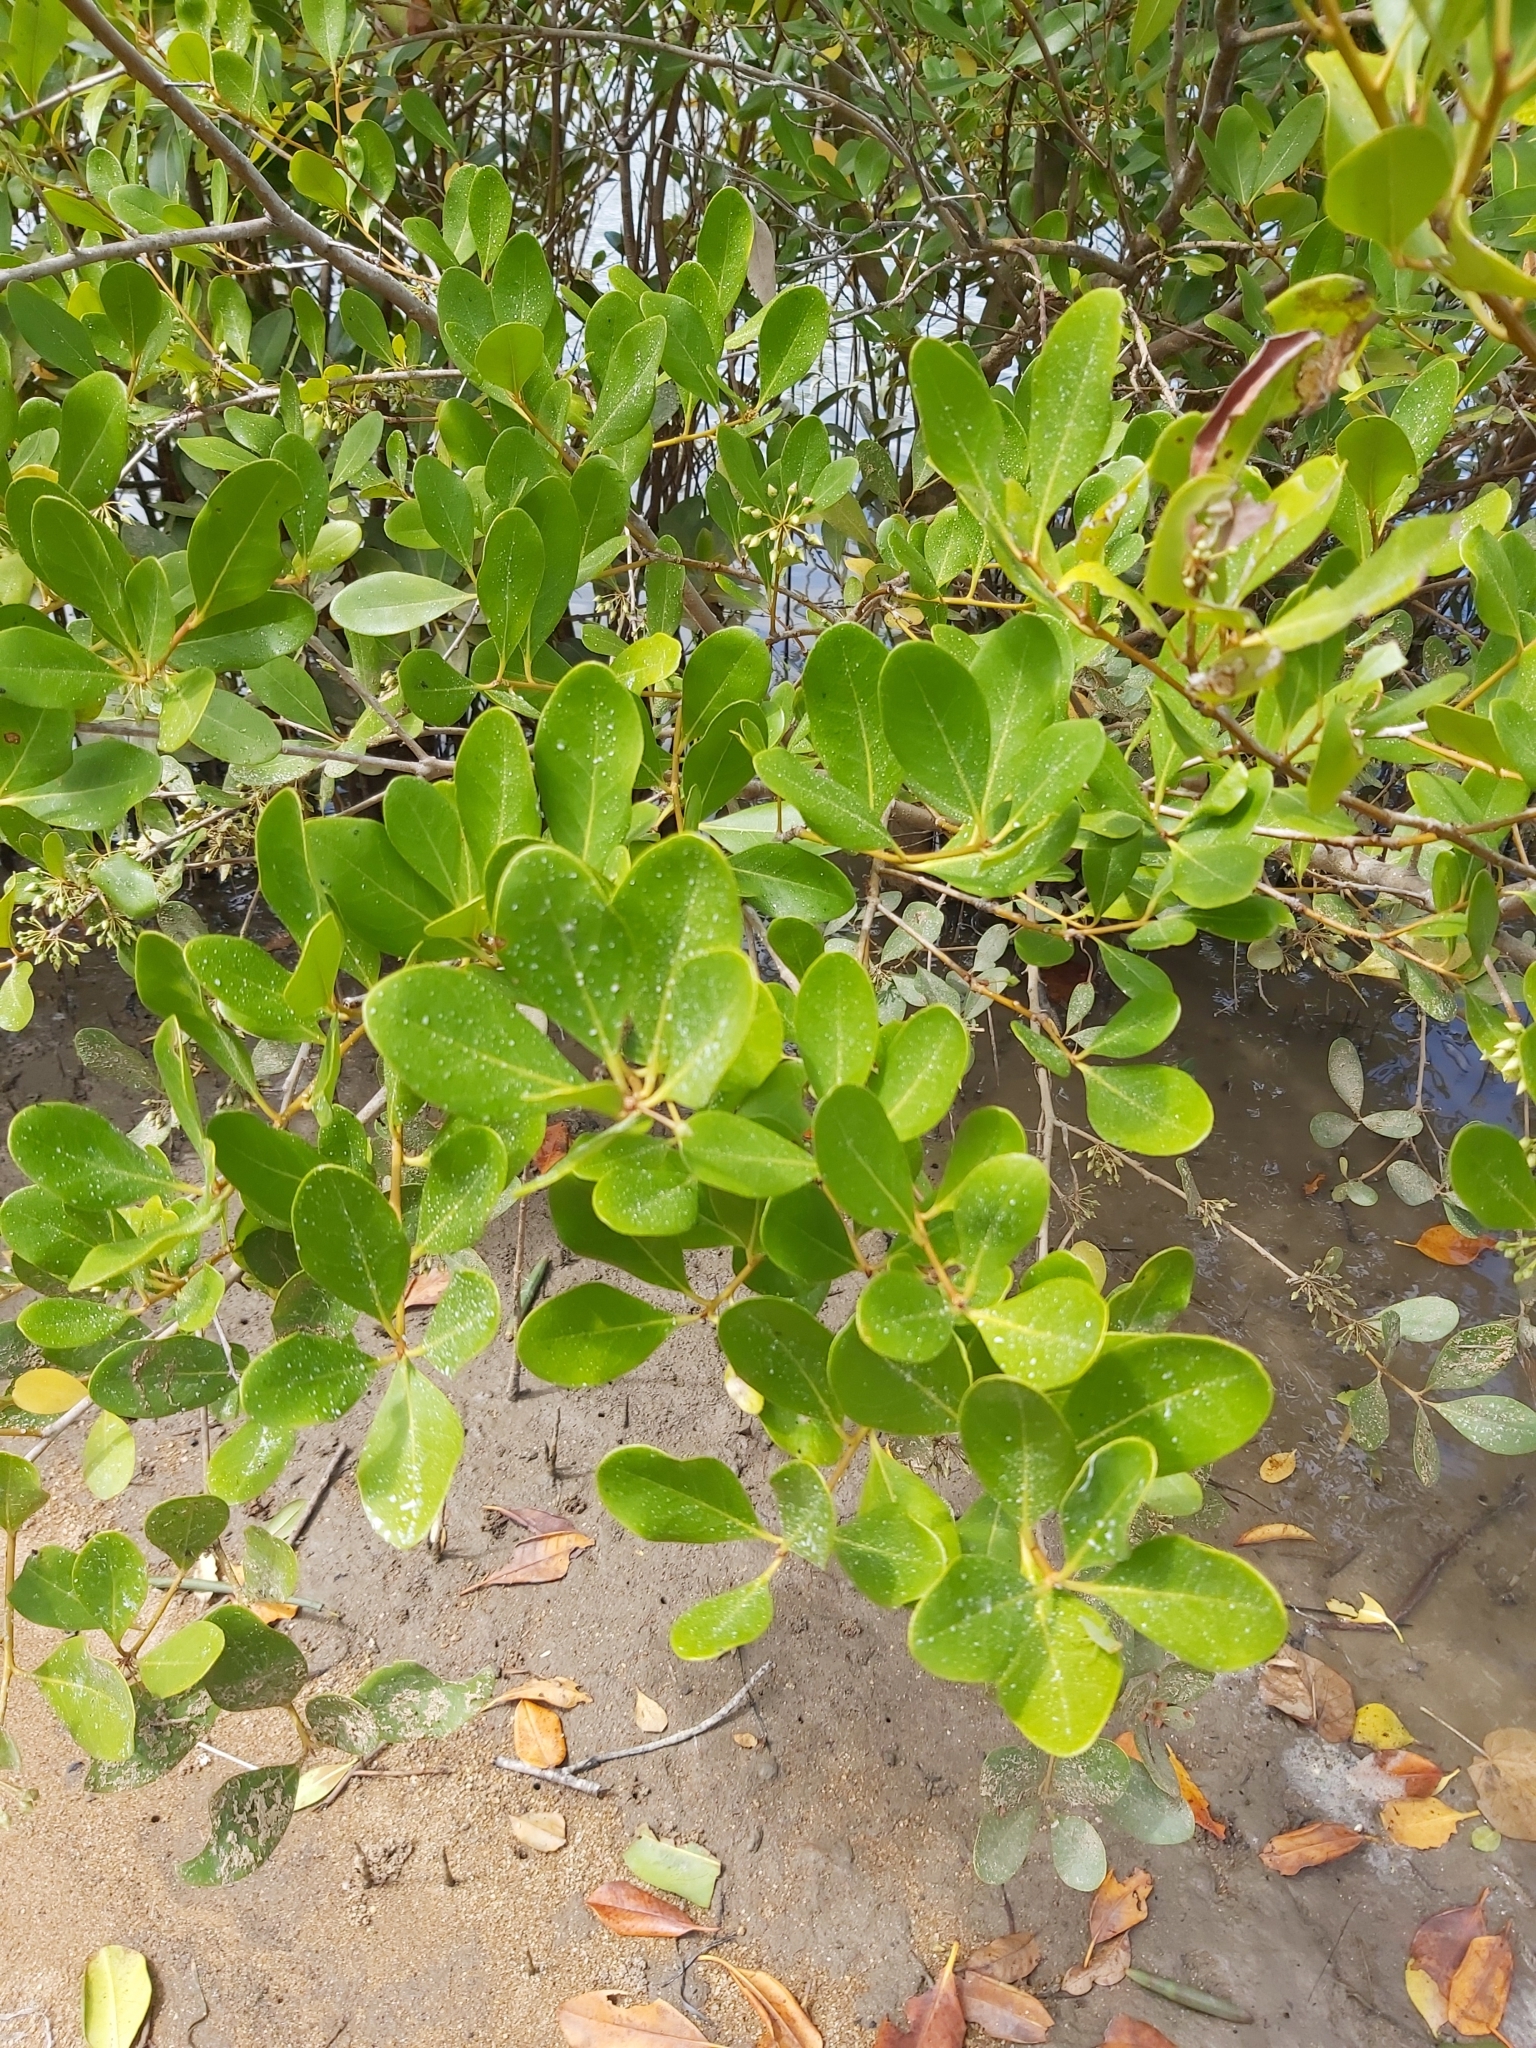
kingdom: Plantae
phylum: Tracheophyta
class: Magnoliopsida
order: Ericales
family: Primulaceae
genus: Aegiceras
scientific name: Aegiceras corniculatum
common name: River mangrove
